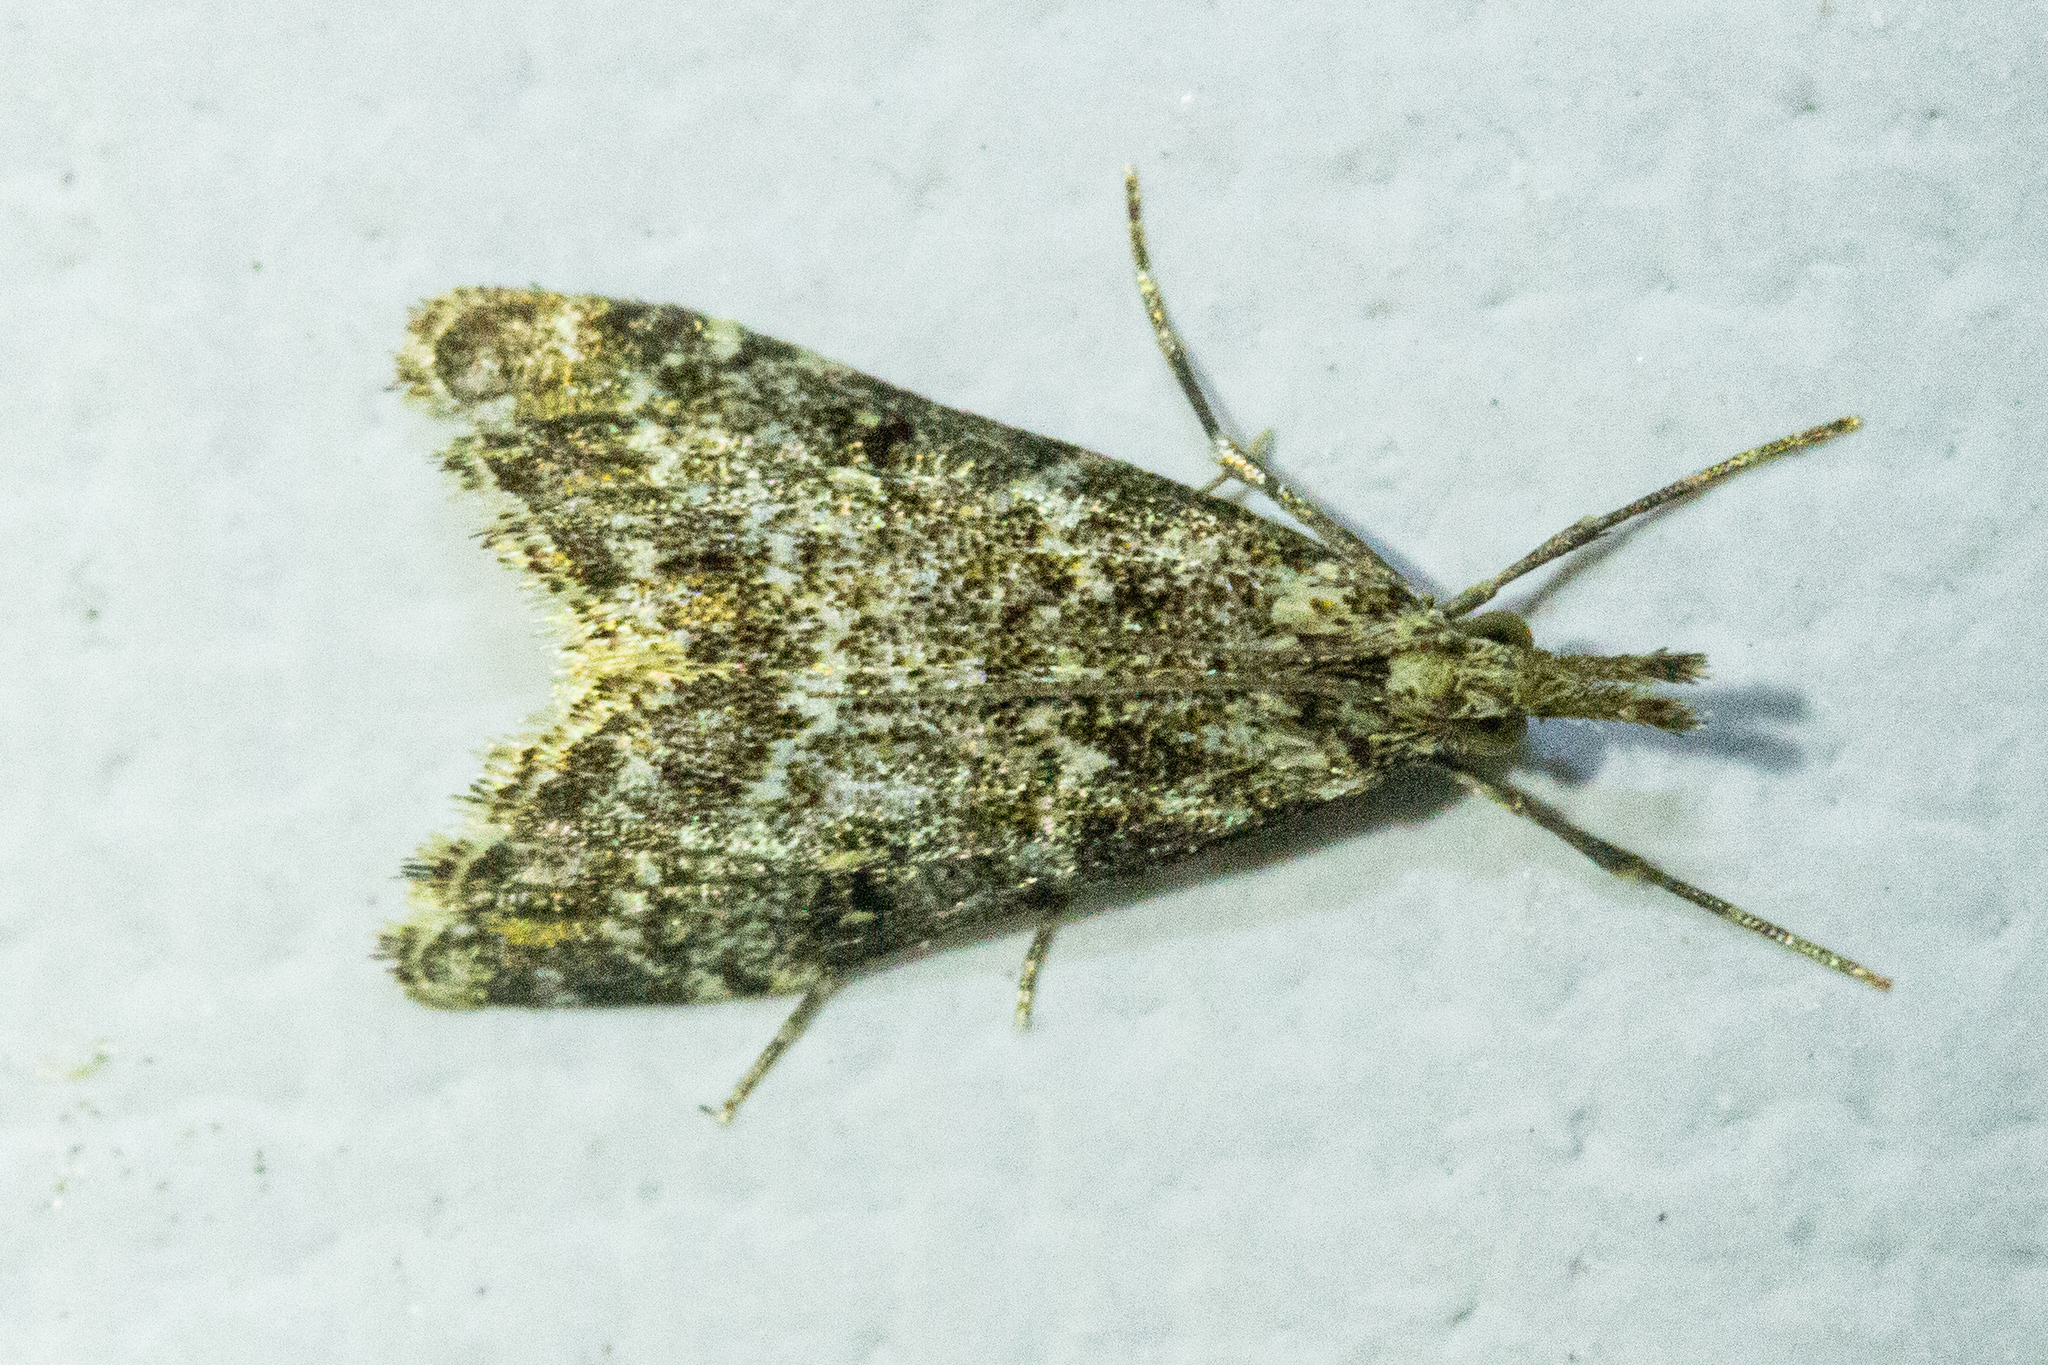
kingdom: Animalia
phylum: Arthropoda
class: Insecta
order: Lepidoptera
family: Crambidae
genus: Glaucocharis
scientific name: Glaucocharis elaina
